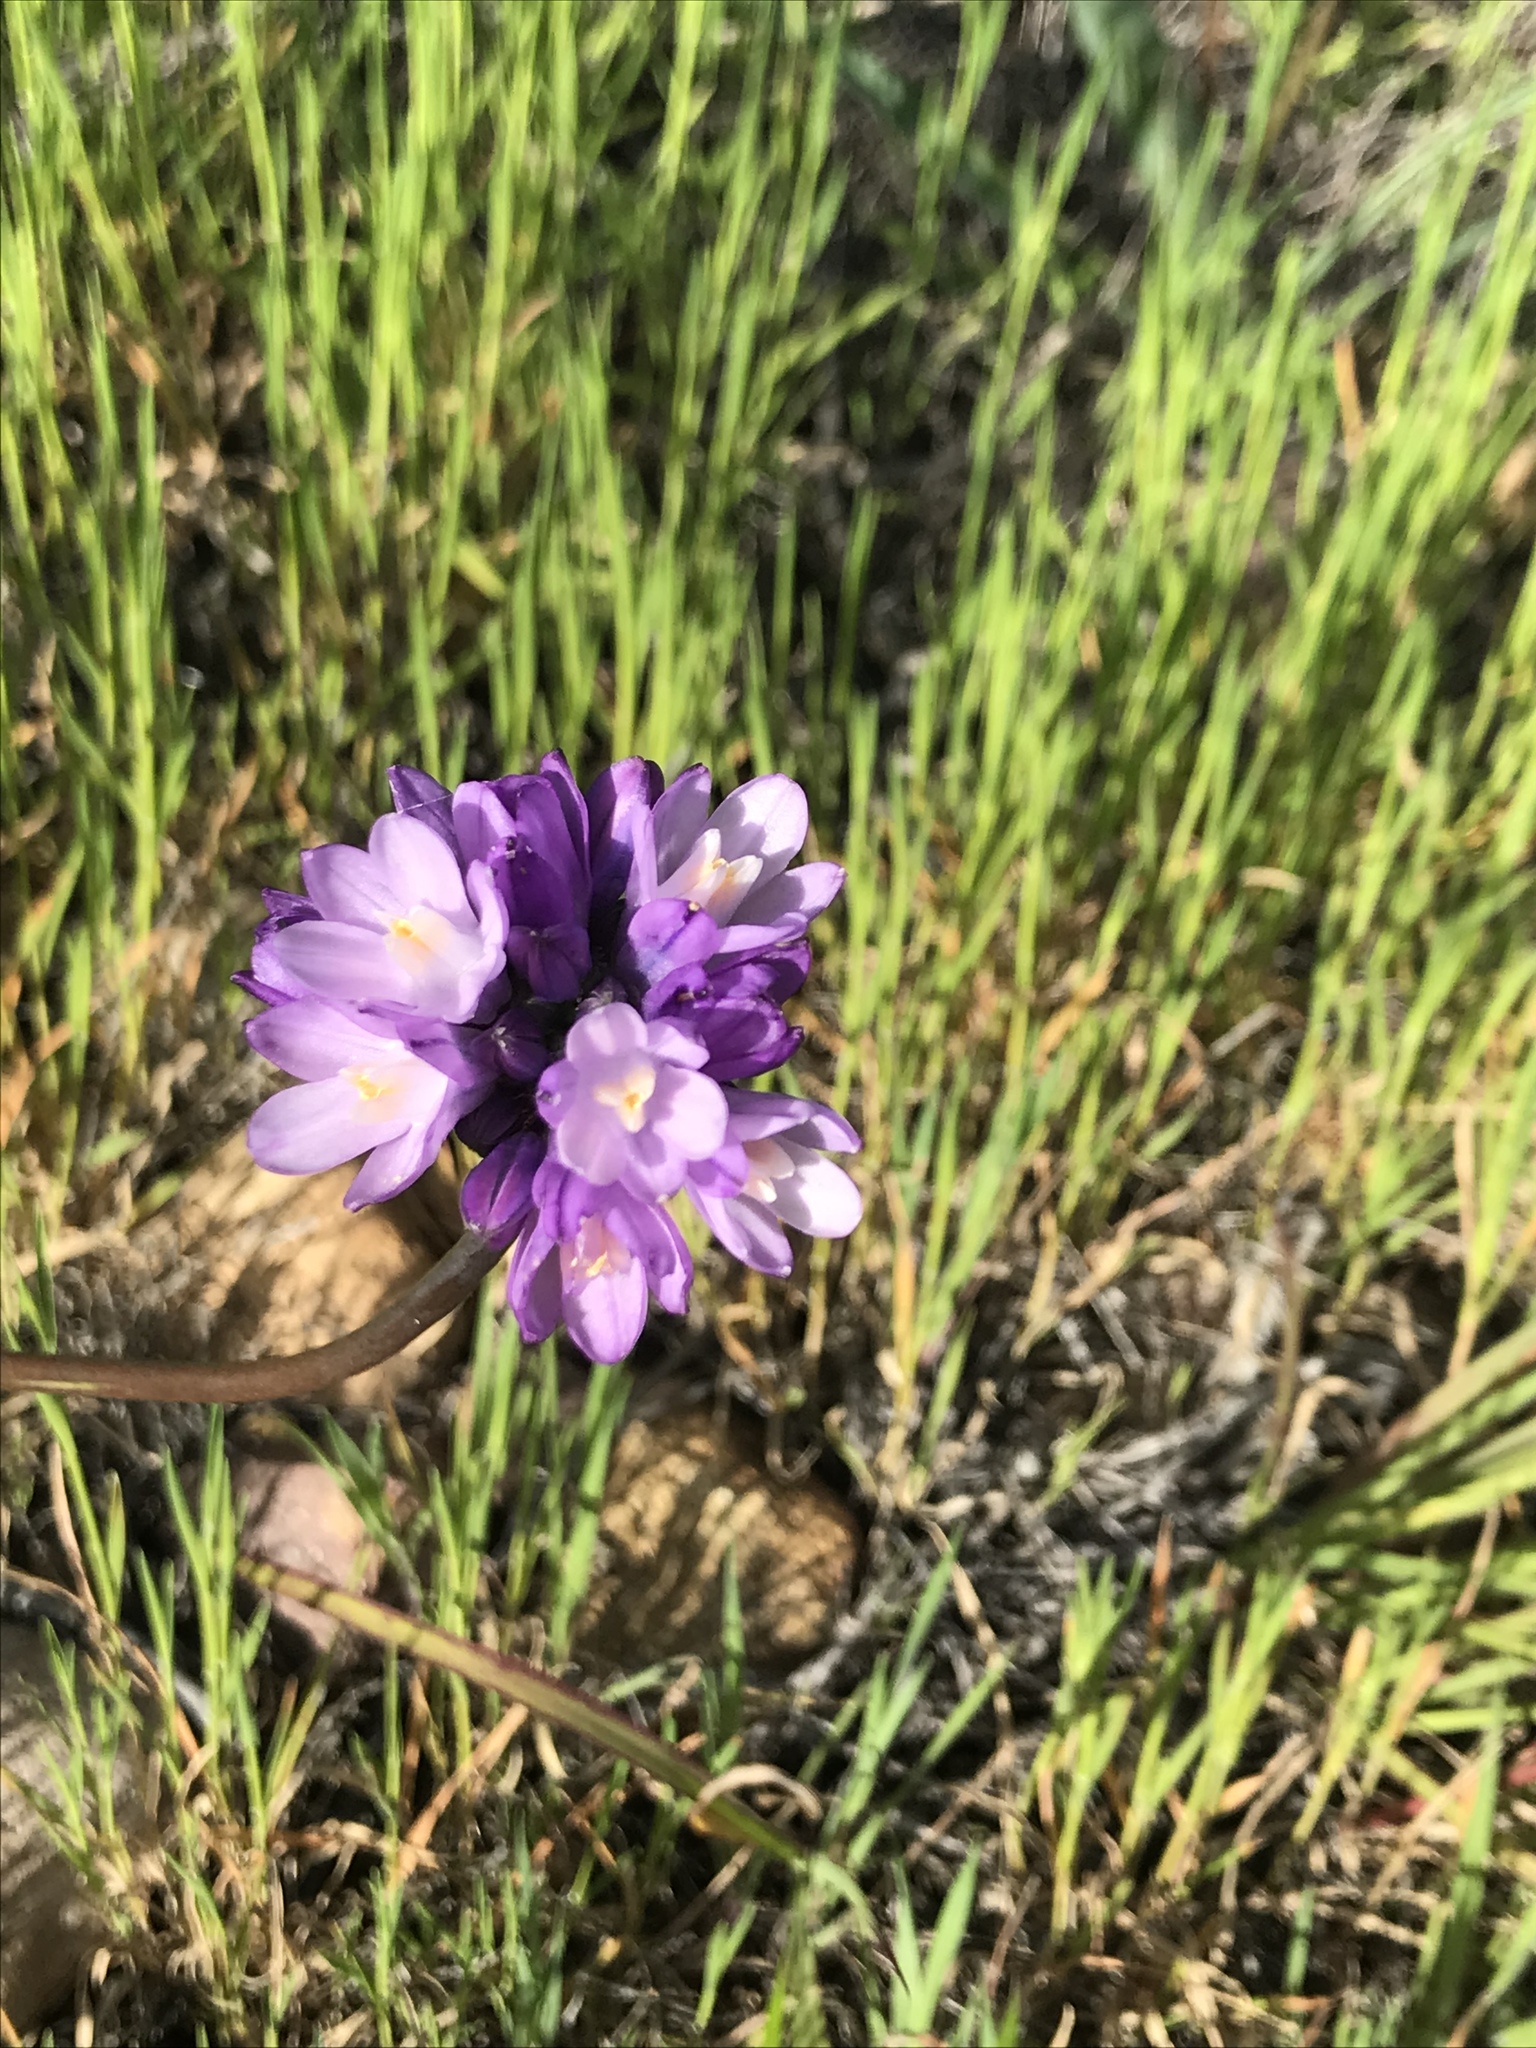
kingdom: Plantae
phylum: Tracheophyta
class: Liliopsida
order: Asparagales
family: Asparagaceae
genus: Dipterostemon
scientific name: Dipterostemon capitatus
